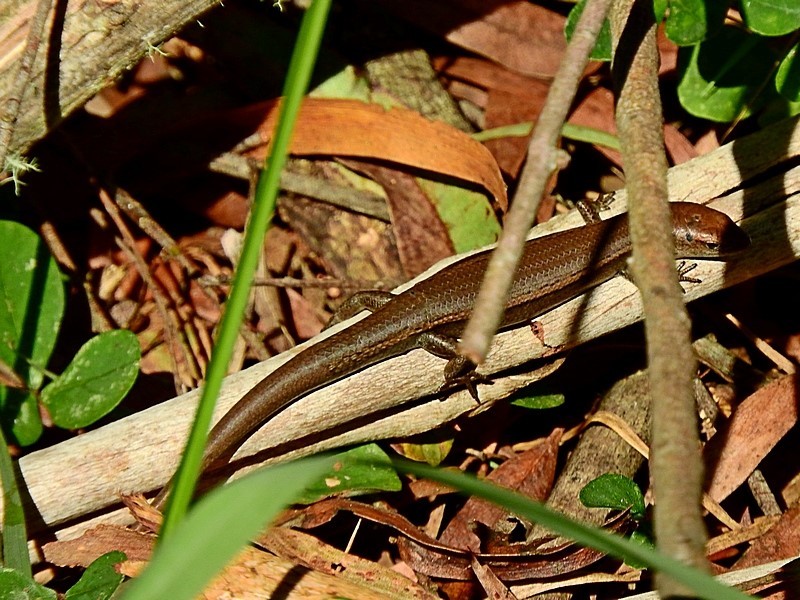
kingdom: Animalia
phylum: Chordata
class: Squamata
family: Scincidae
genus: Lampropholis
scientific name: Lampropholis delicata
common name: Plague skink
